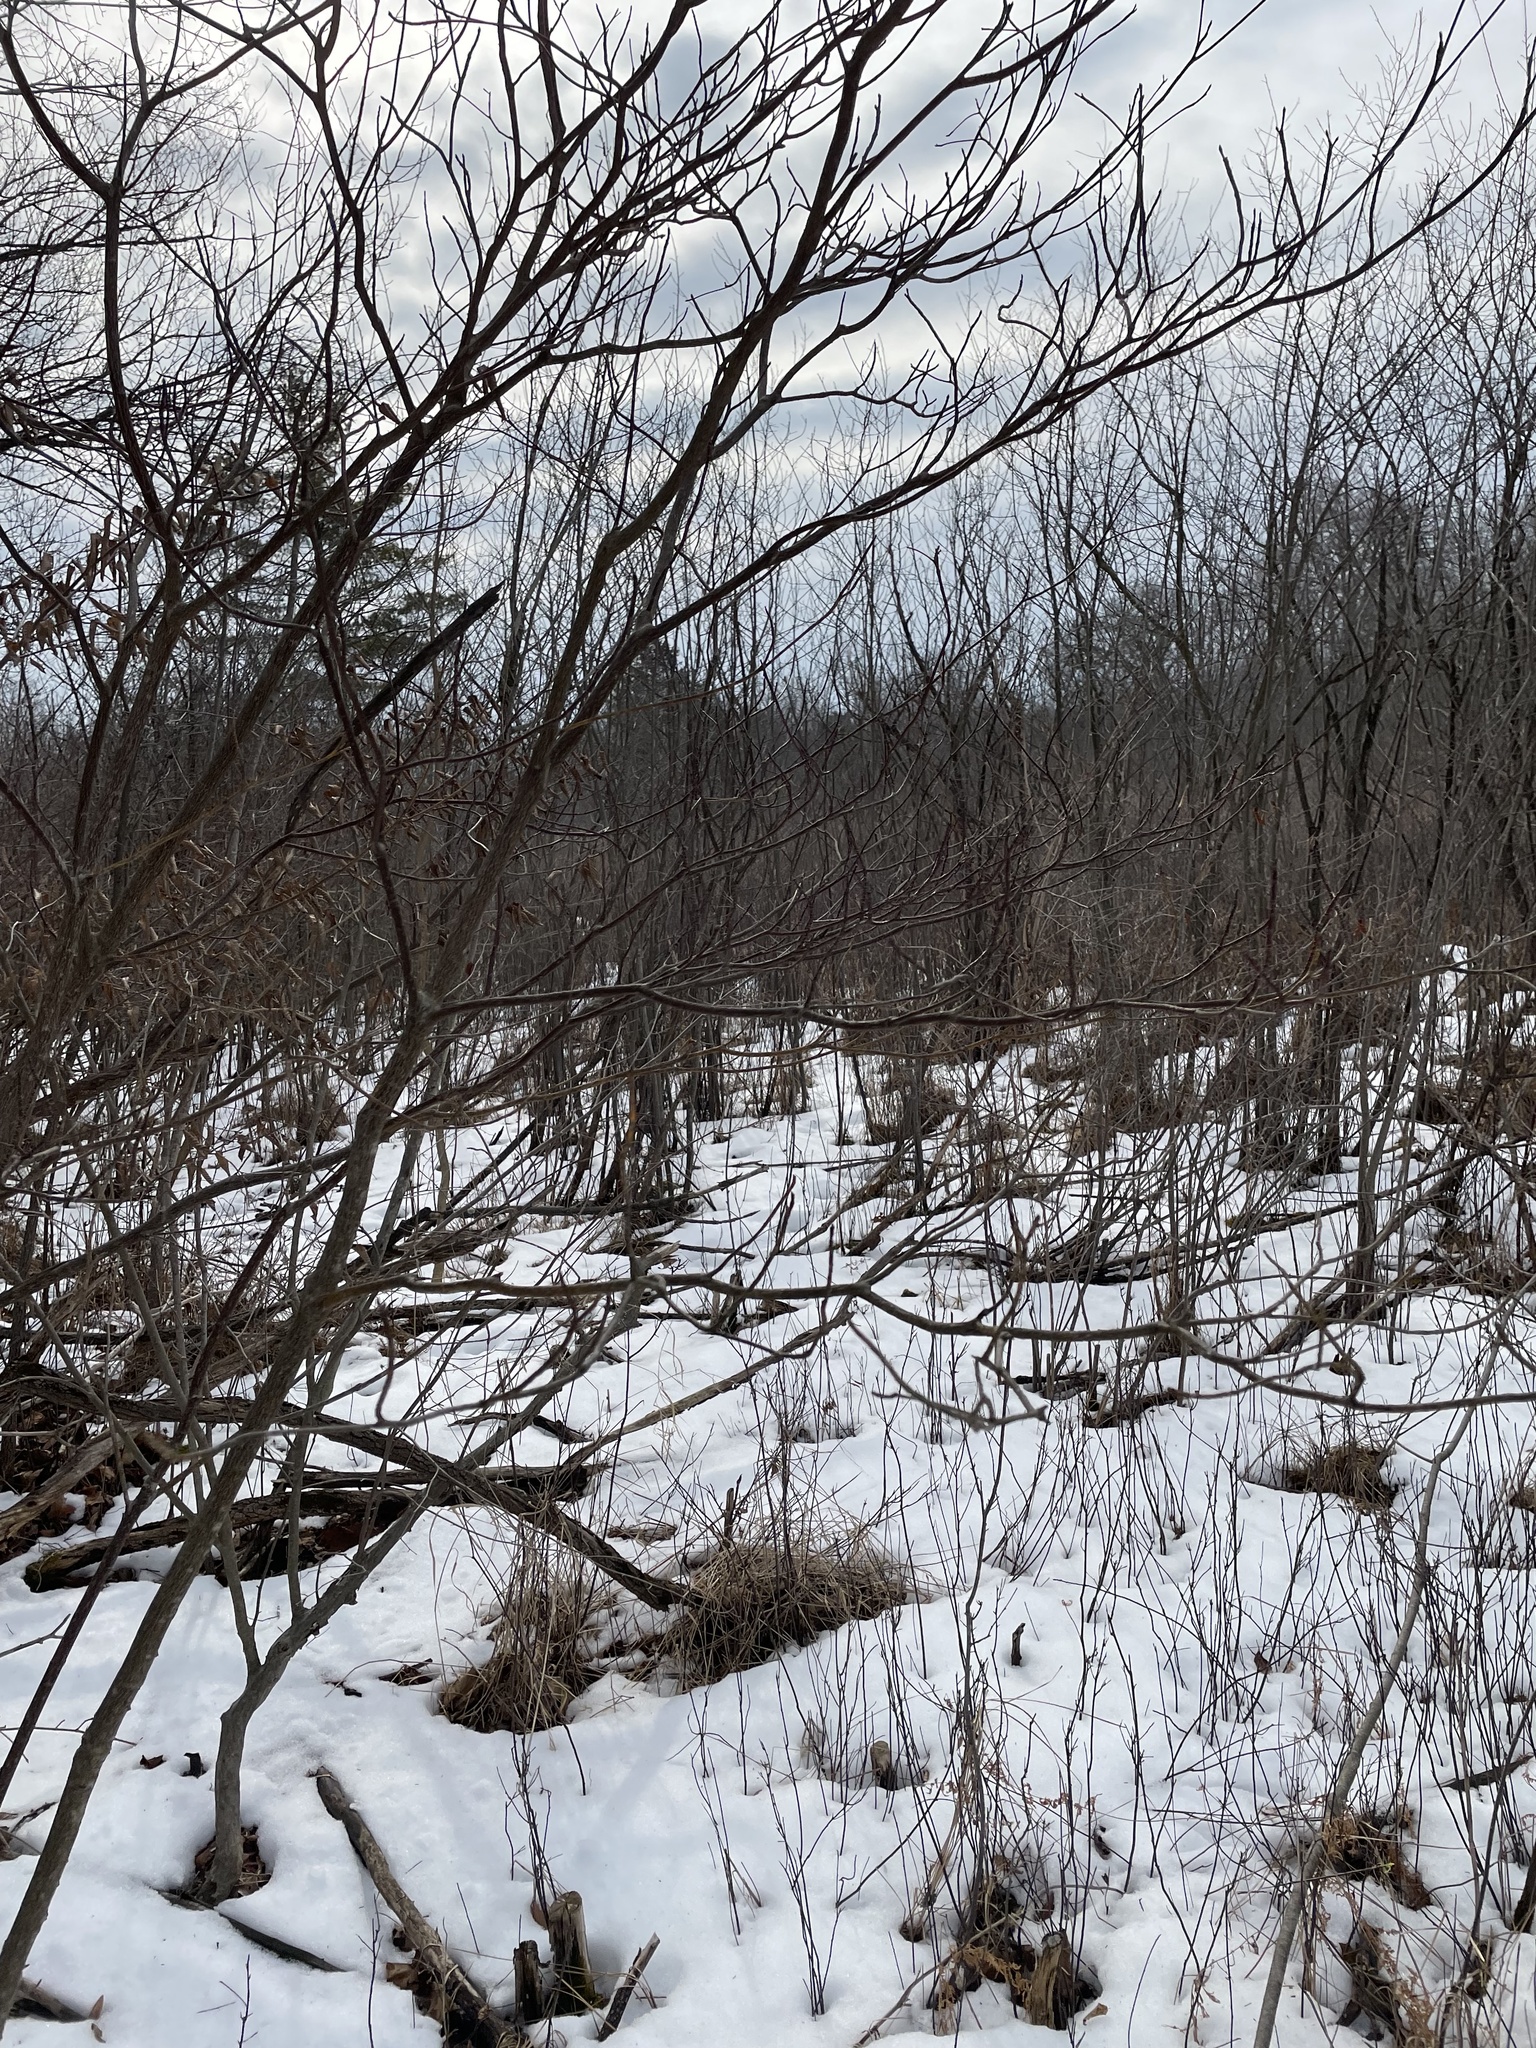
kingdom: Plantae
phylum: Tracheophyta
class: Magnoliopsida
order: Cornales
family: Cornaceae
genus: Cornus
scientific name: Cornus alternifolia
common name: Pagoda dogwood
